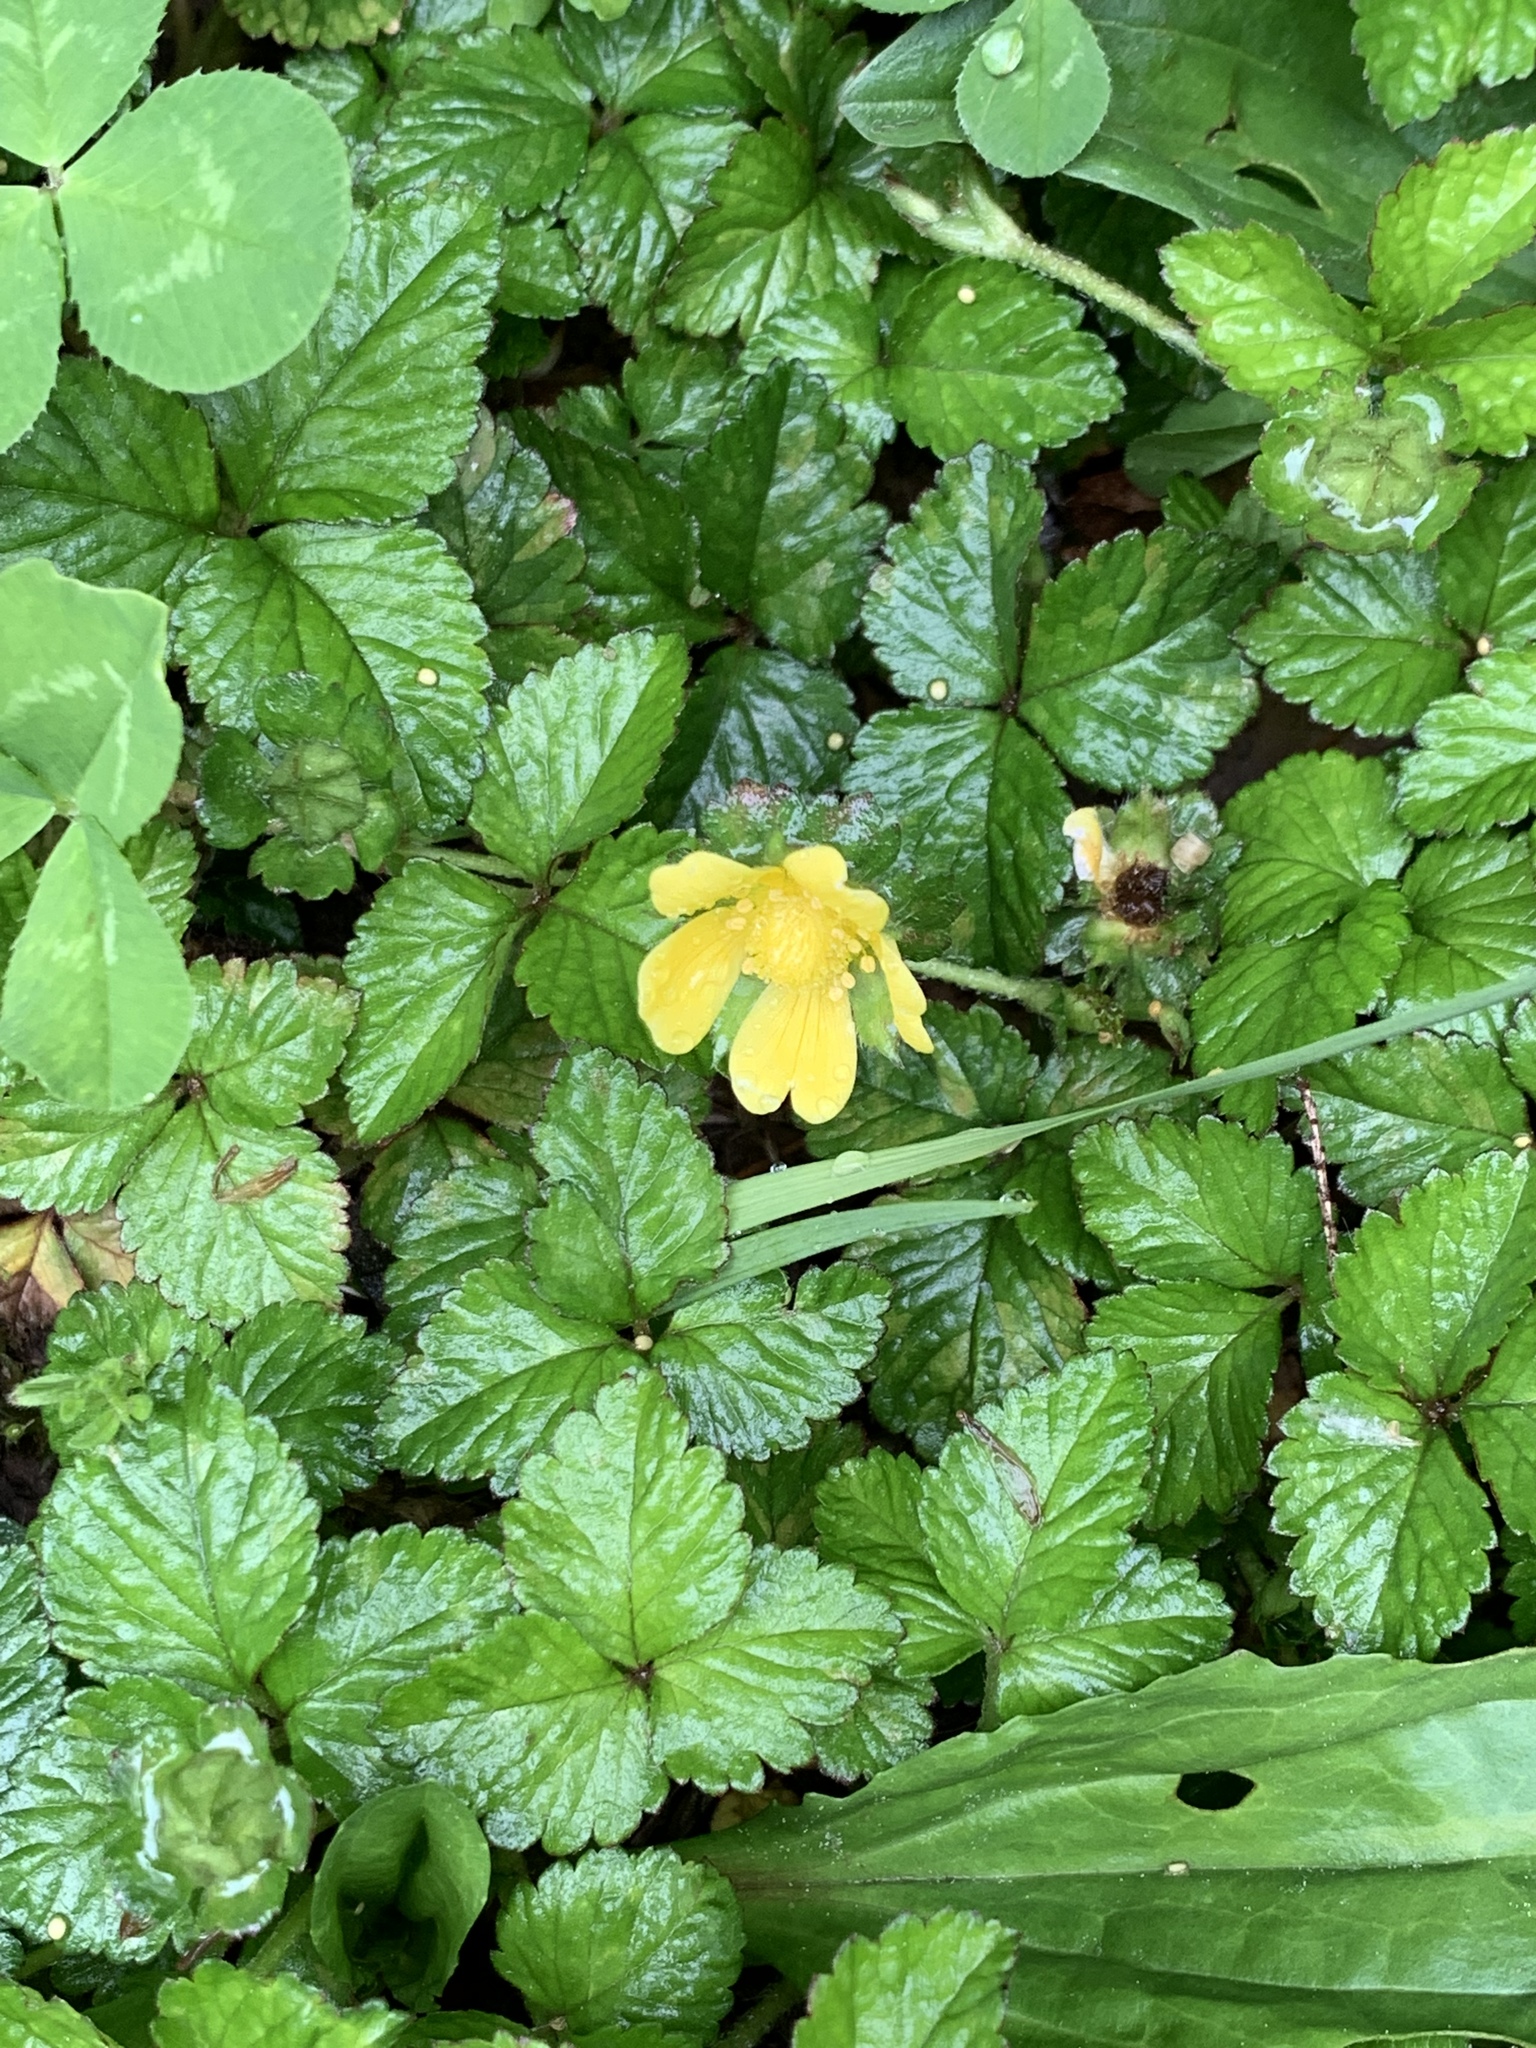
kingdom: Plantae
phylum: Tracheophyta
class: Magnoliopsida
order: Rosales
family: Rosaceae
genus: Potentilla
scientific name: Potentilla indica
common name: Yellow-flowered strawberry
